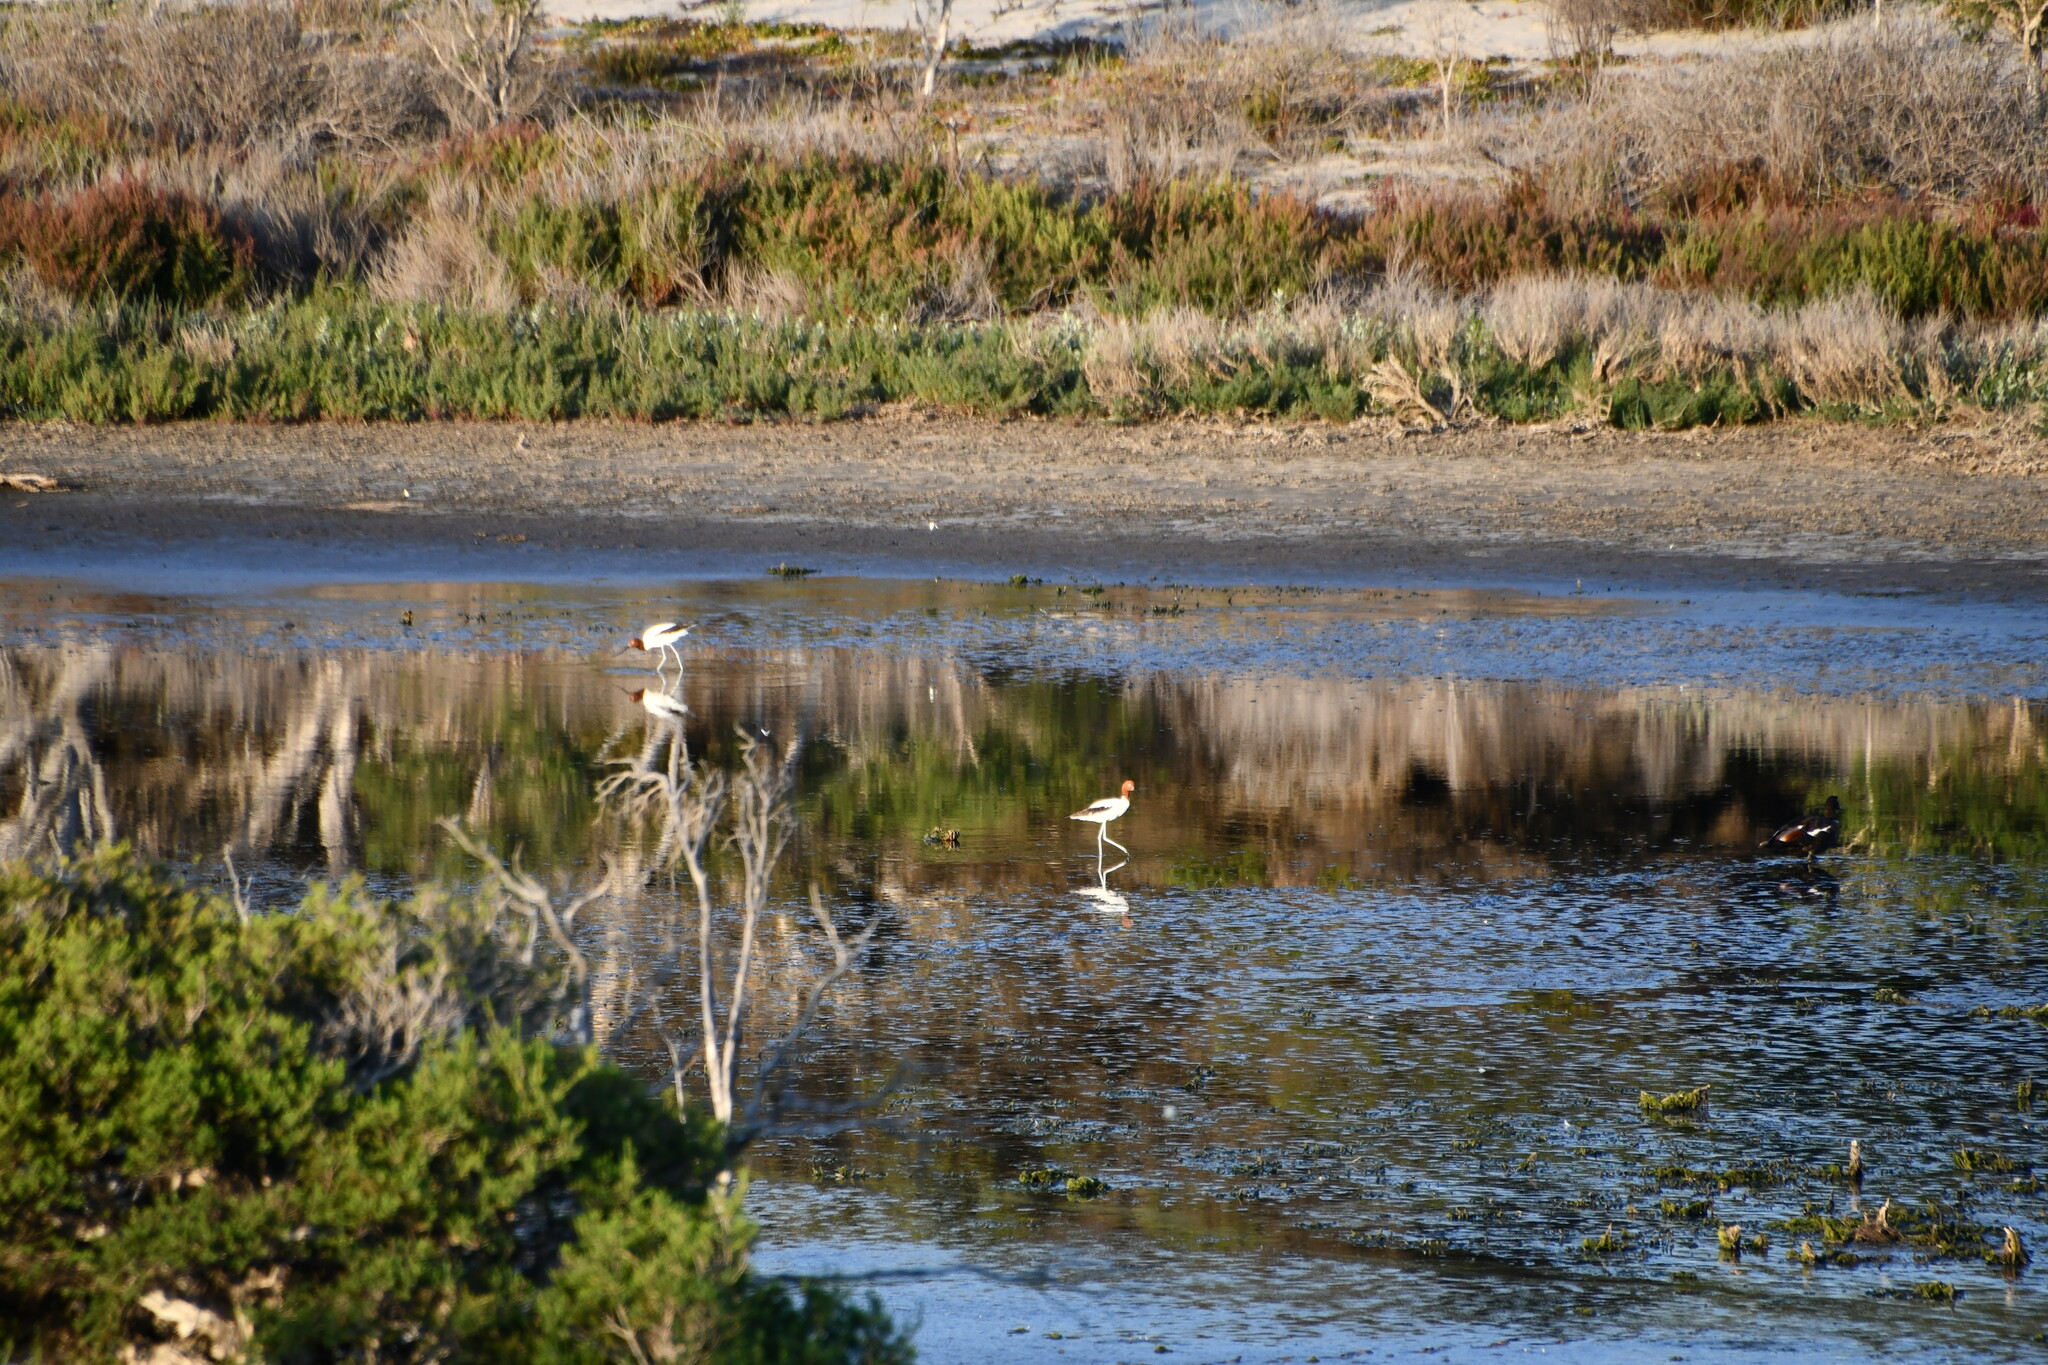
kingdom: Animalia
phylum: Chordata
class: Aves
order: Charadriiformes
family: Recurvirostridae
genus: Recurvirostra
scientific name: Recurvirostra novaehollandiae
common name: Red-necked avocet
